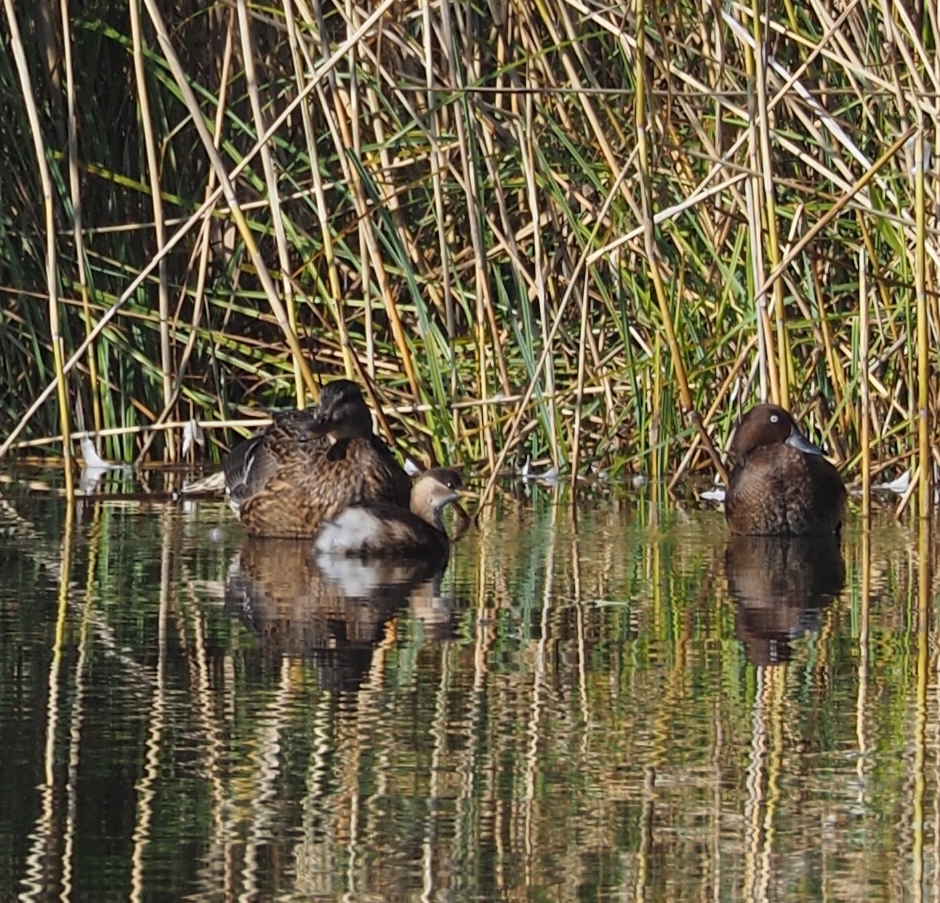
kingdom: Animalia
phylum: Chordata
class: Aves
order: Podicipediformes
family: Podicipedidae
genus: Tachybaptus
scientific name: Tachybaptus ruficollis
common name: Little grebe
